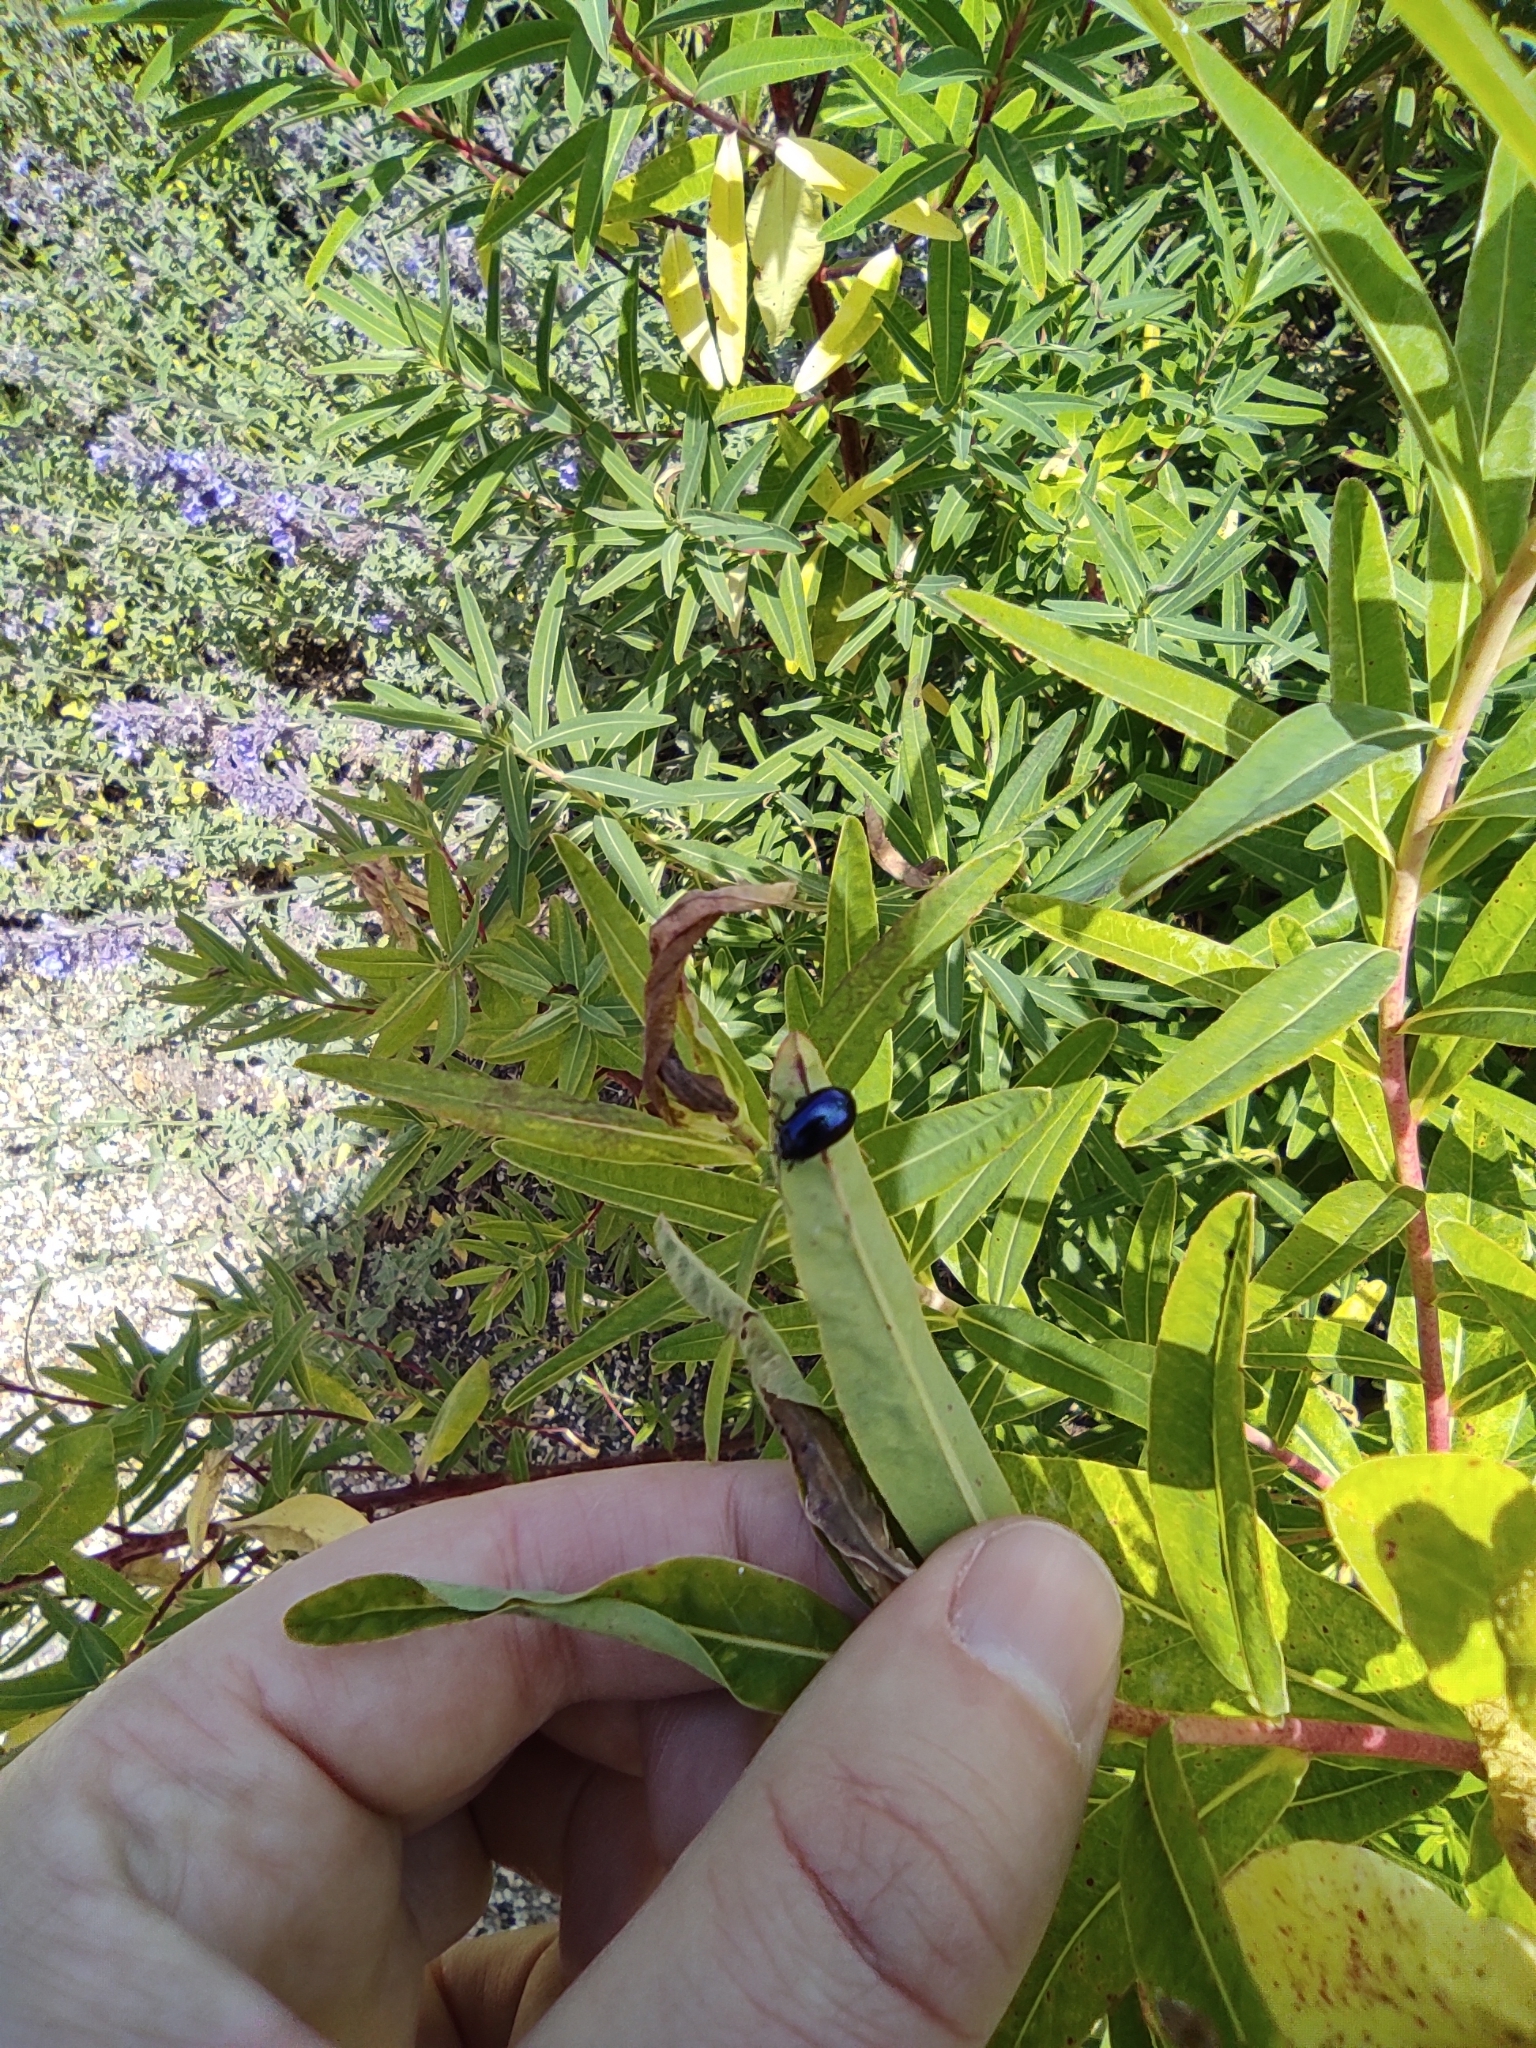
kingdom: Animalia
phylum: Arthropoda
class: Insecta
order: Coleoptera
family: Chrysomelidae
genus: Agelastica
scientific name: Agelastica alni
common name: Alder leaf beetle
